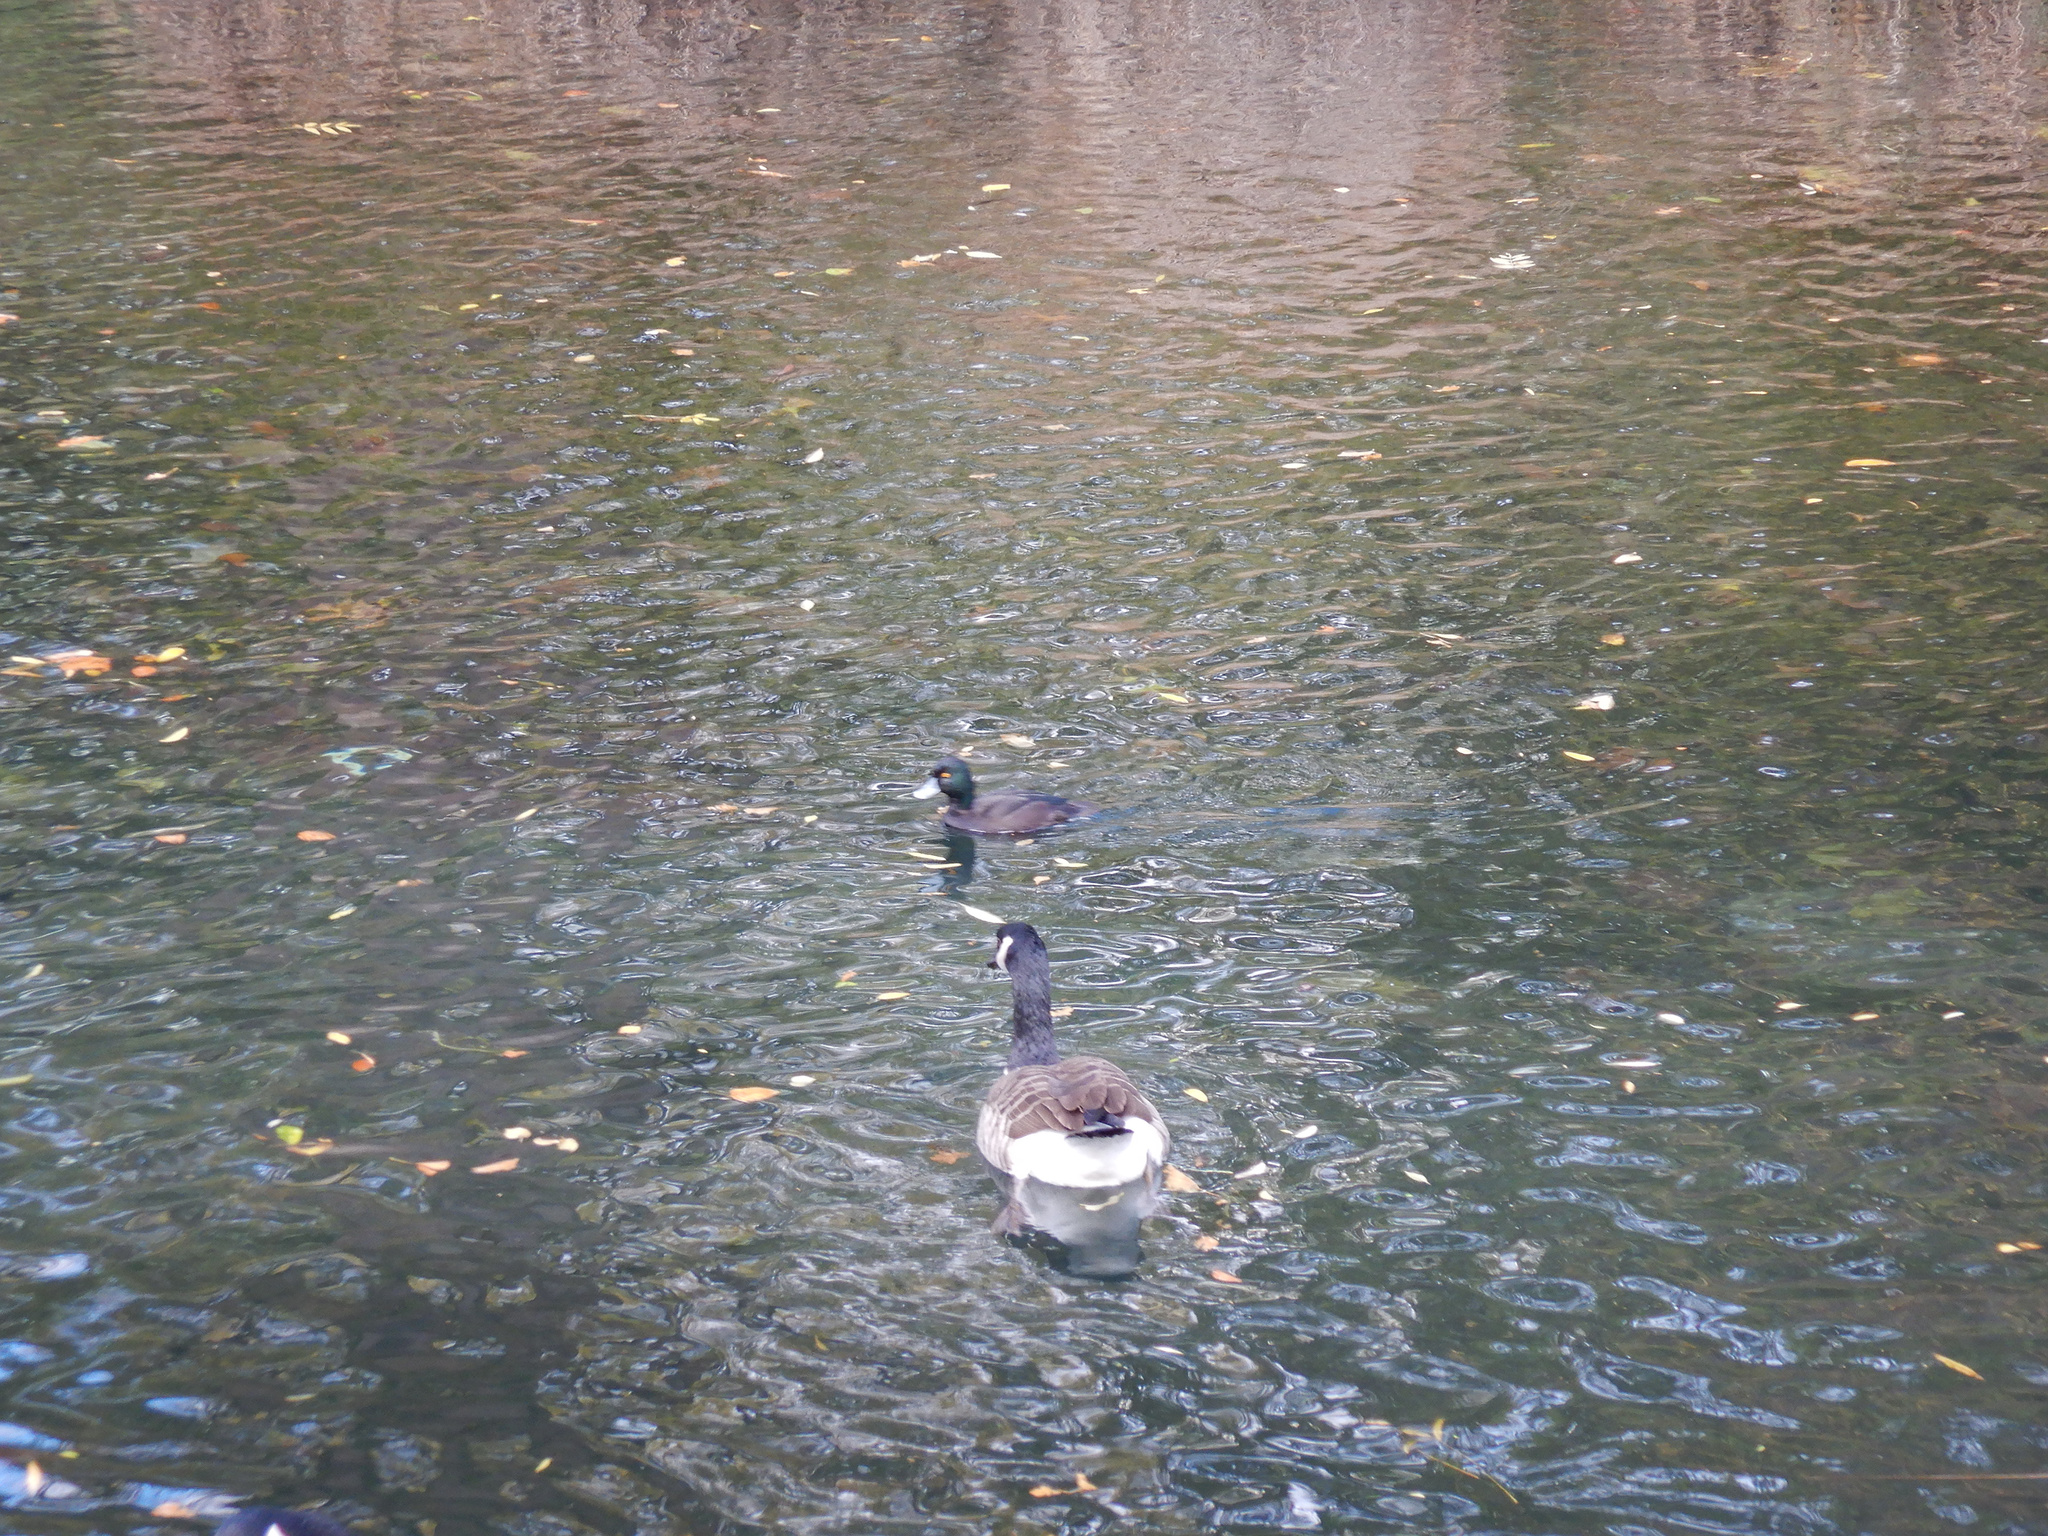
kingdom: Animalia
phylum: Chordata
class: Aves
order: Anseriformes
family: Anatidae
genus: Branta
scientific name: Branta canadensis
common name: Canada goose
